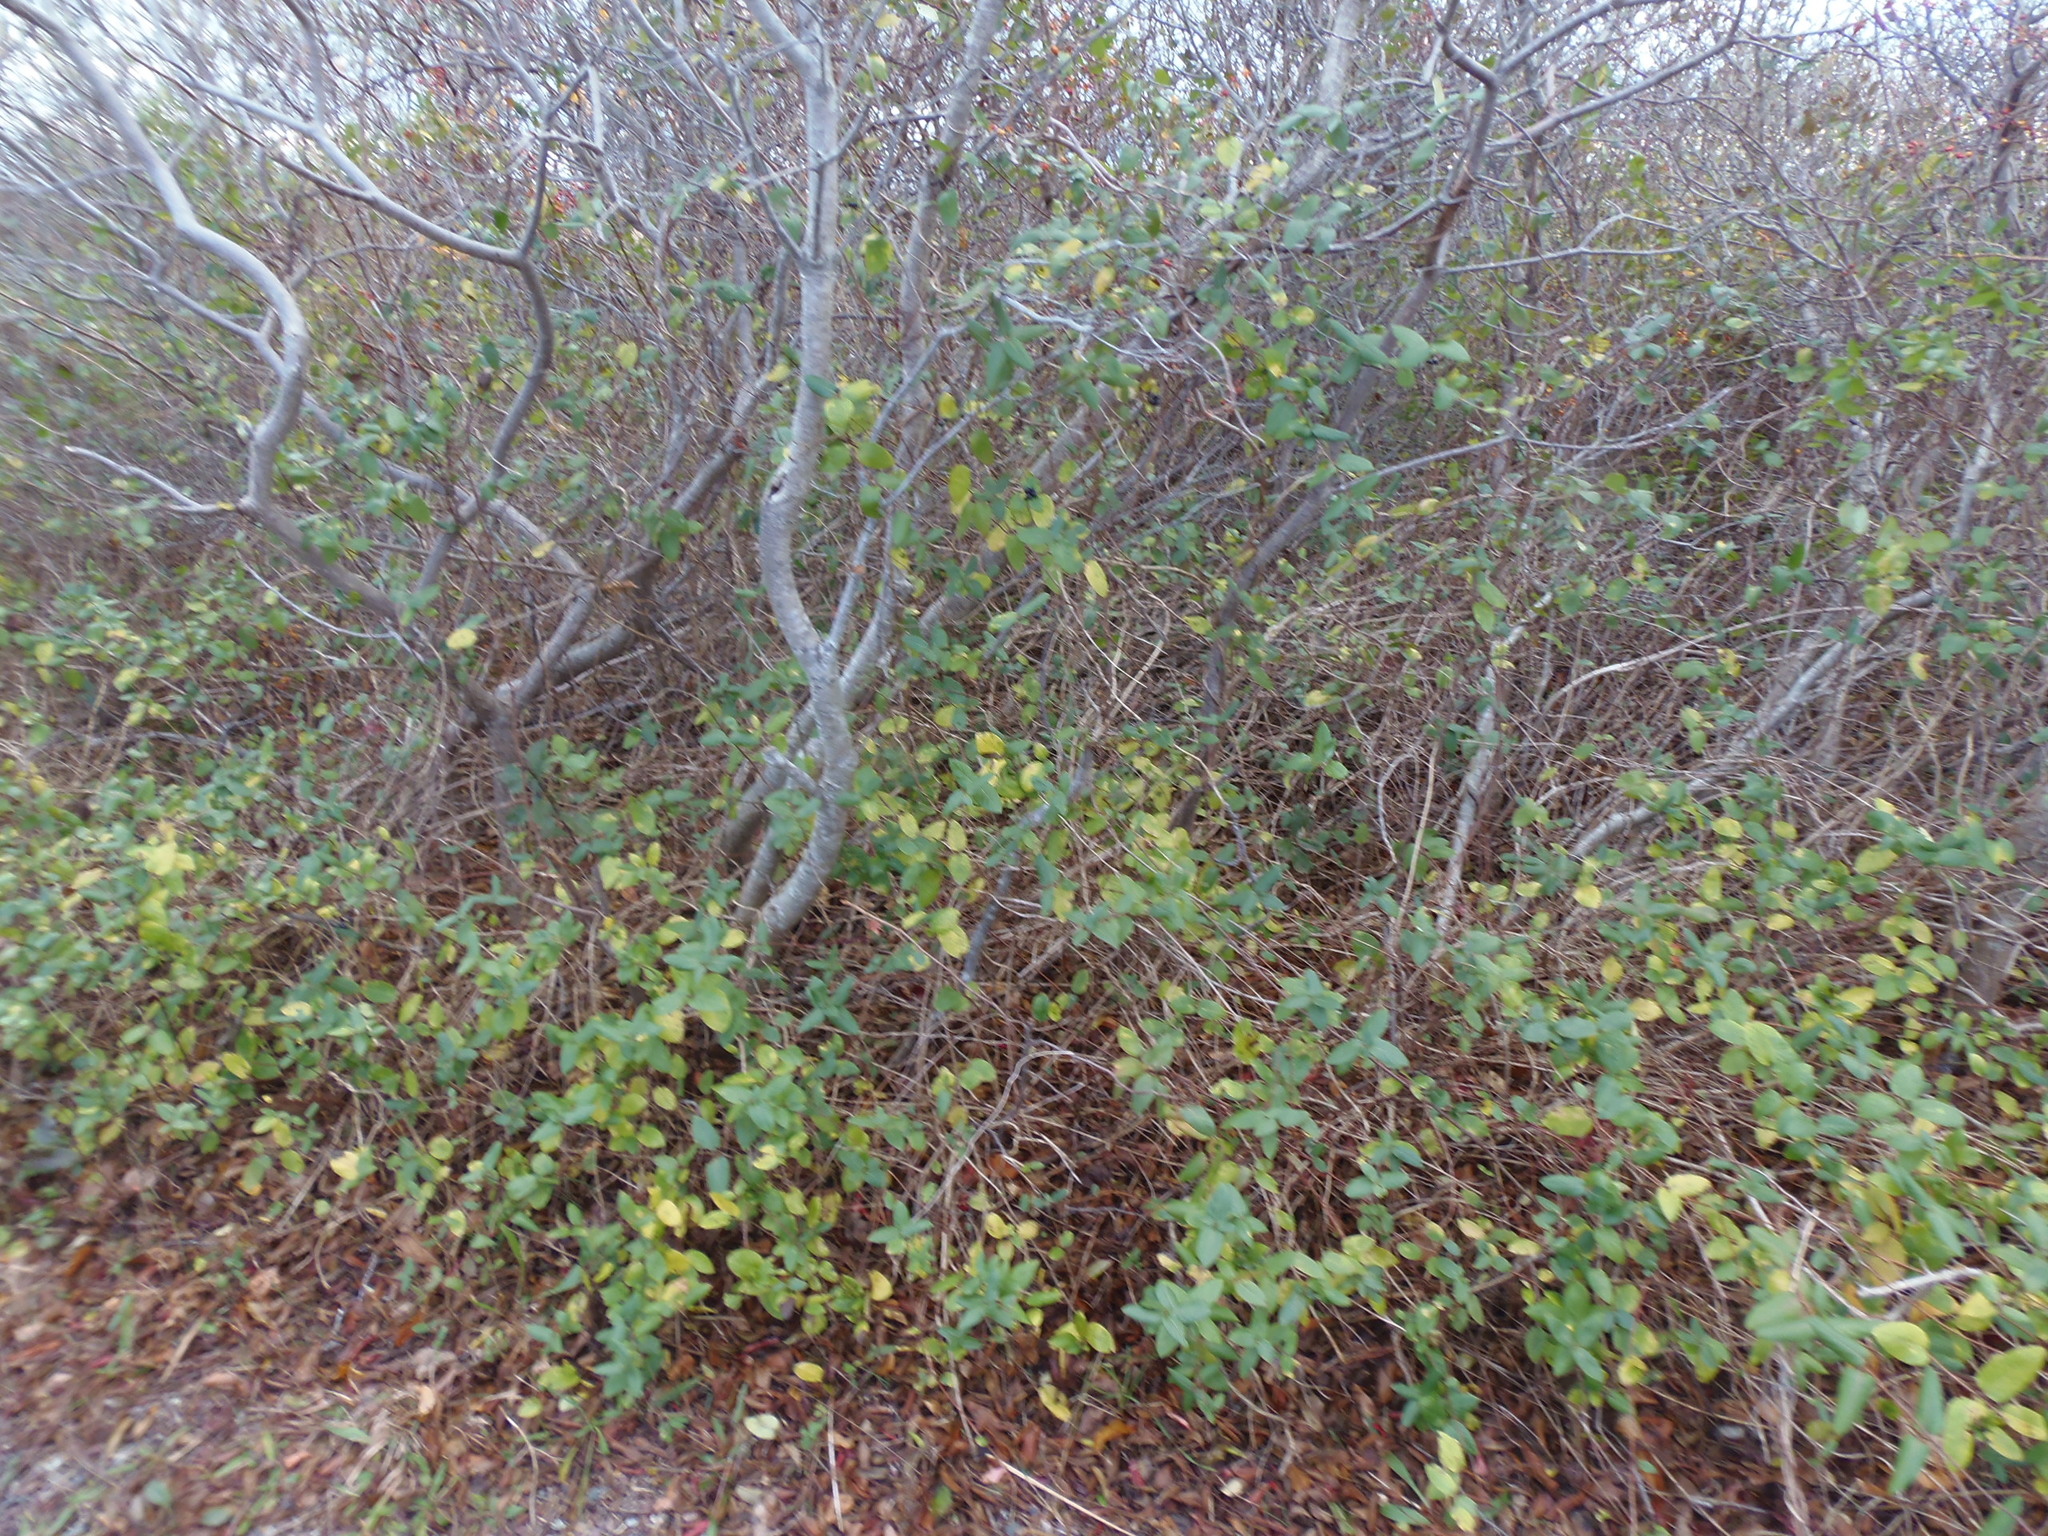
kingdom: Plantae
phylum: Tracheophyta
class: Magnoliopsida
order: Dipsacales
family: Caprifoliaceae
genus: Lonicera
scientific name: Lonicera japonica
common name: Japanese honeysuckle
